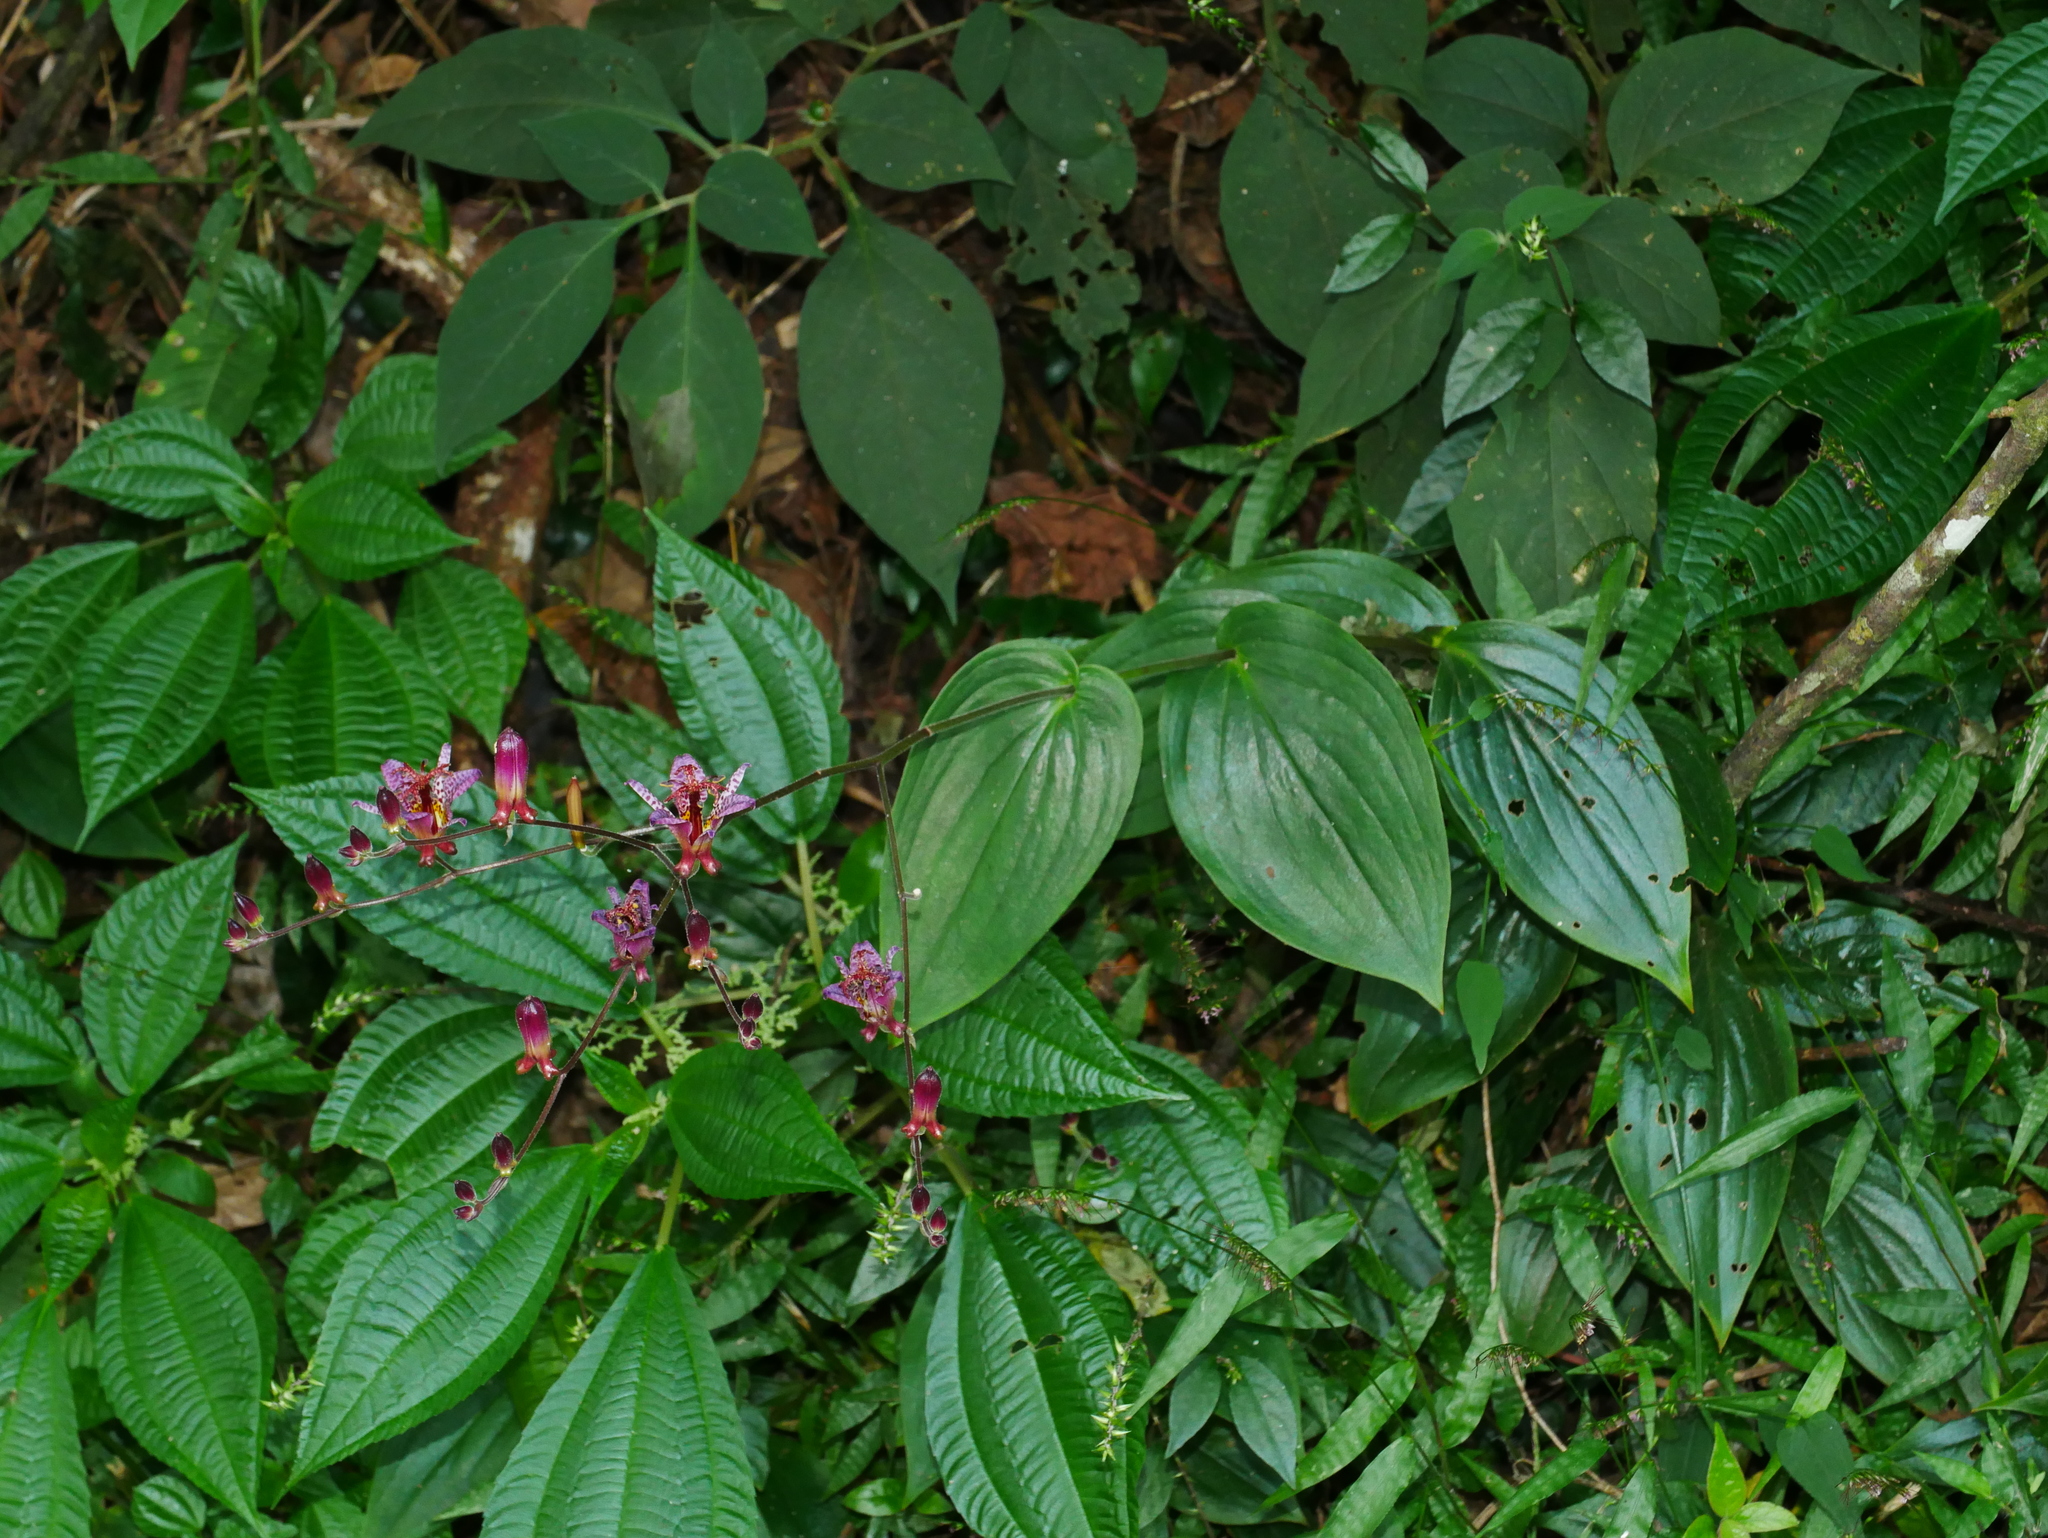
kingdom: Plantae
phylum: Tracheophyta
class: Liliopsida
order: Liliales
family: Liliaceae
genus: Tricyrtis
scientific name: Tricyrtis formosana
